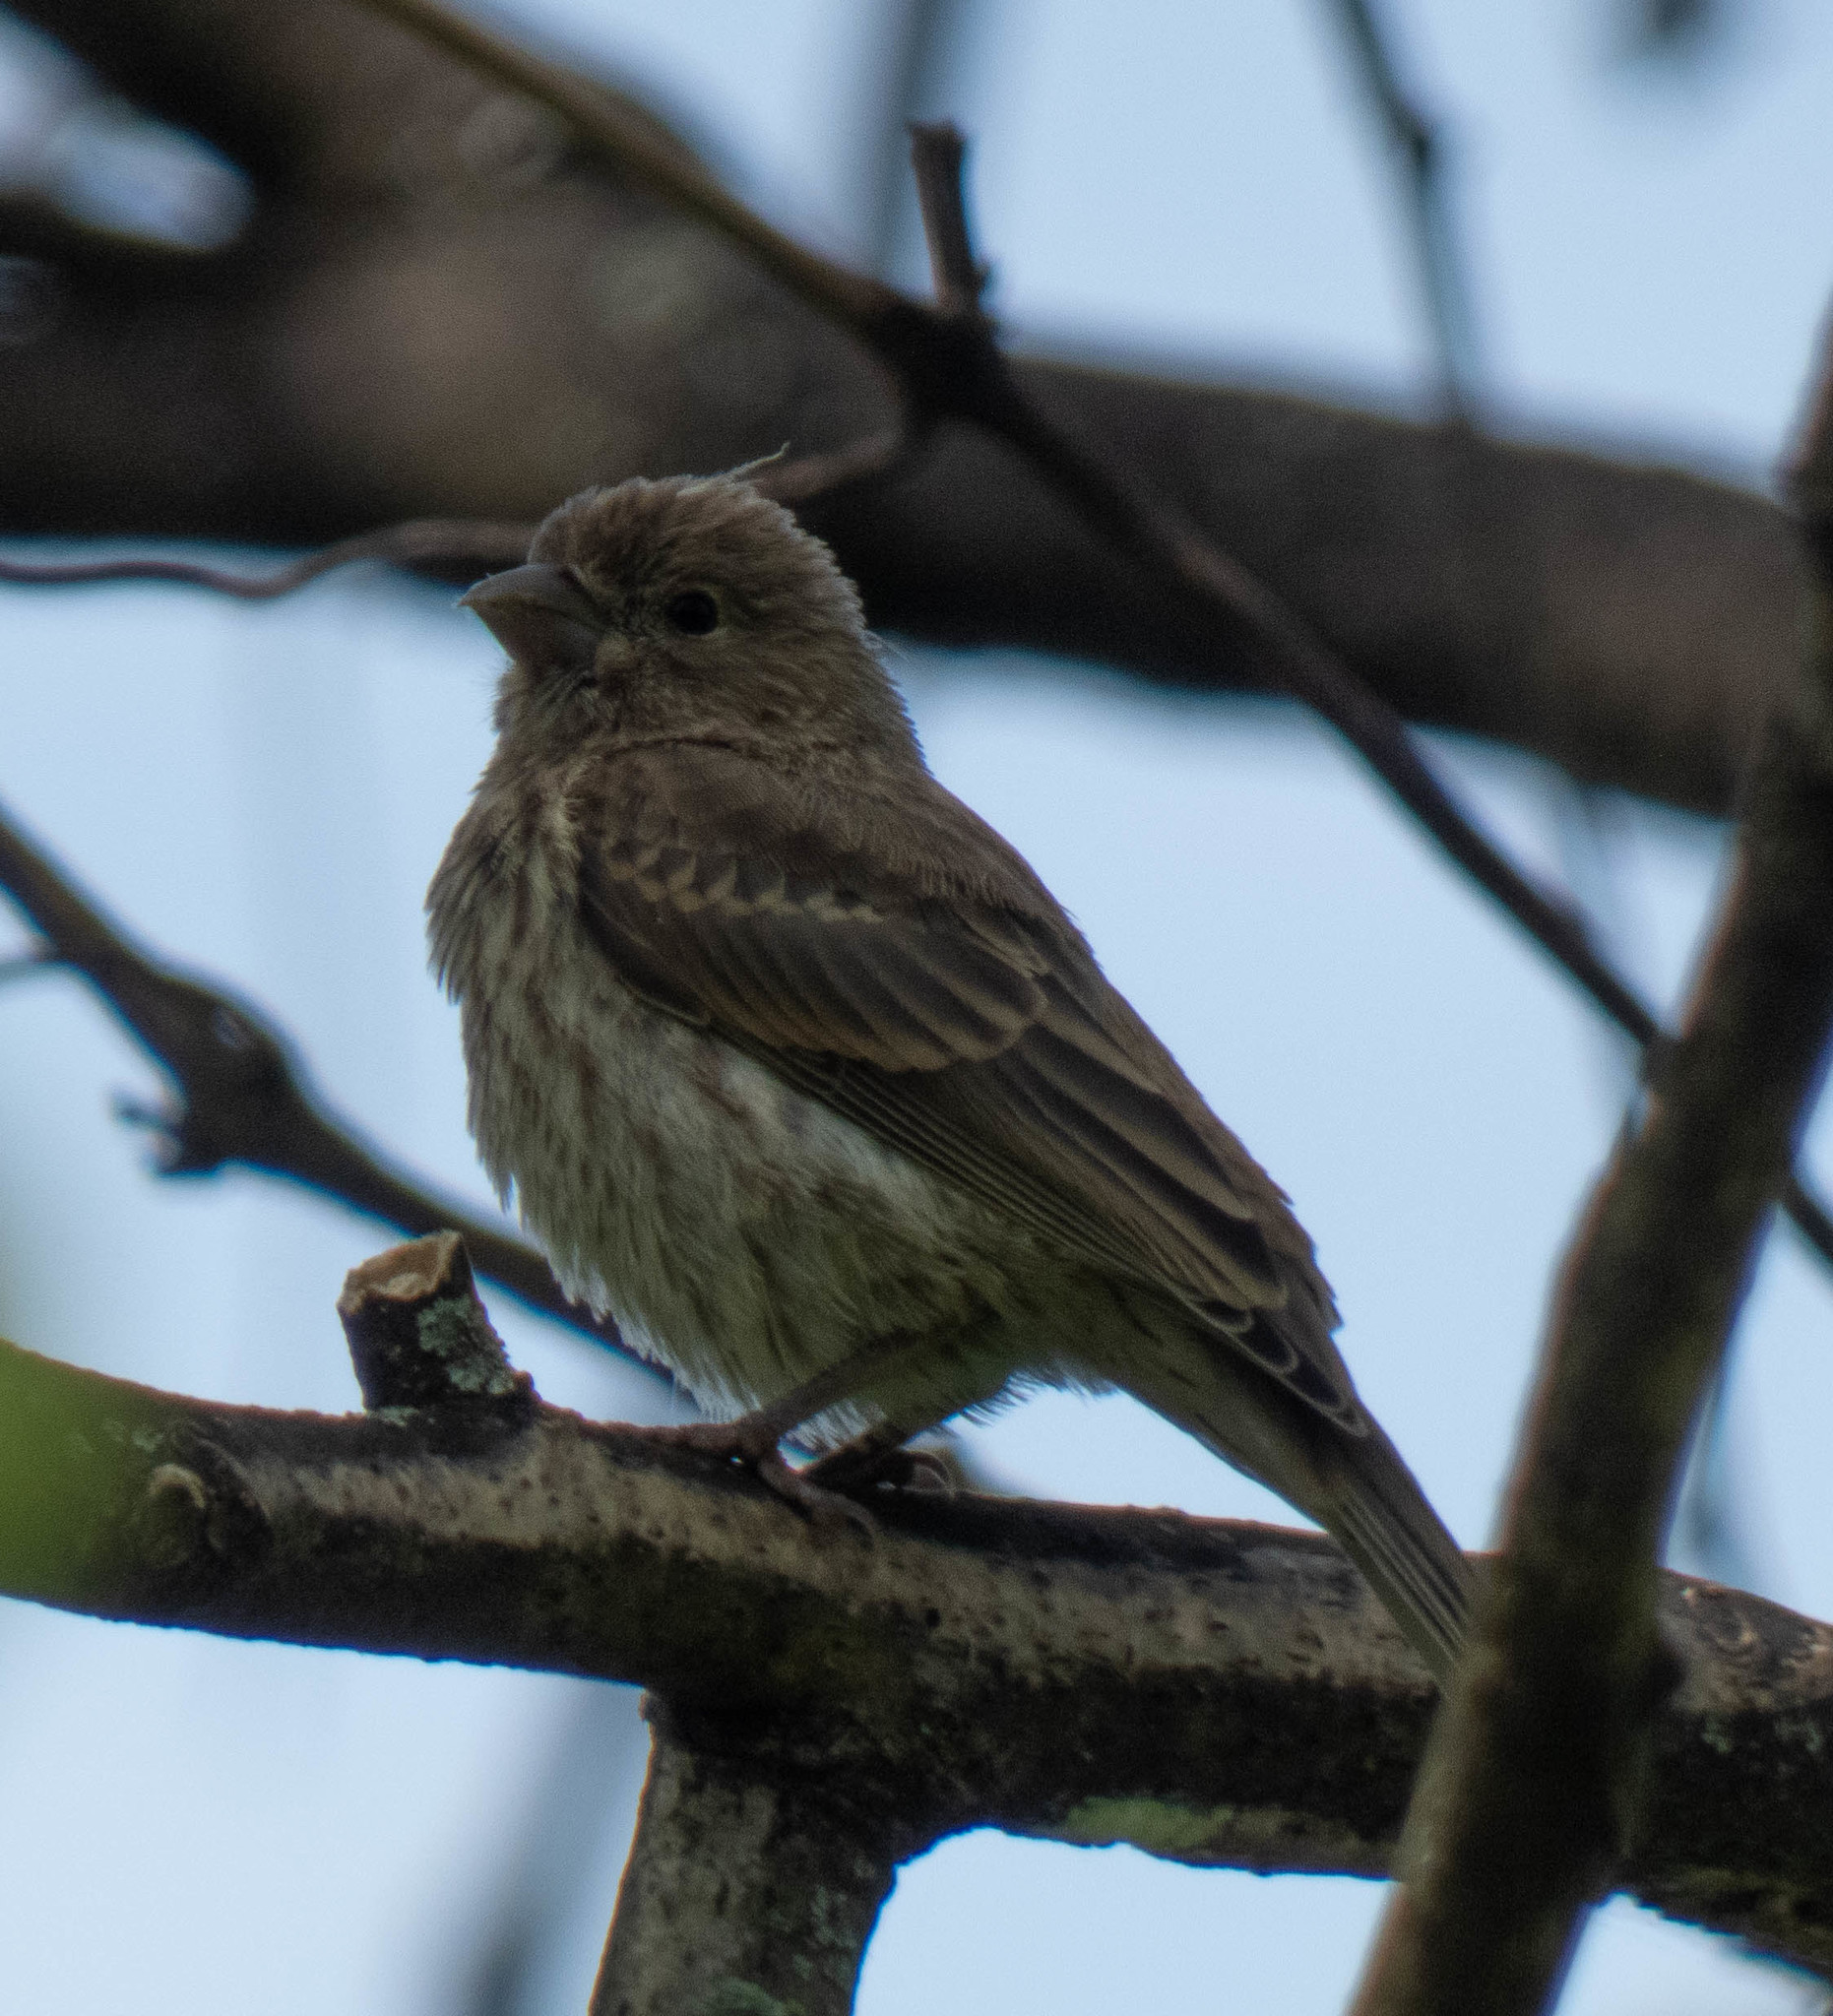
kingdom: Animalia
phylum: Chordata
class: Aves
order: Passeriformes
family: Fringillidae
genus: Haemorhous
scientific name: Haemorhous mexicanus
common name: House finch
